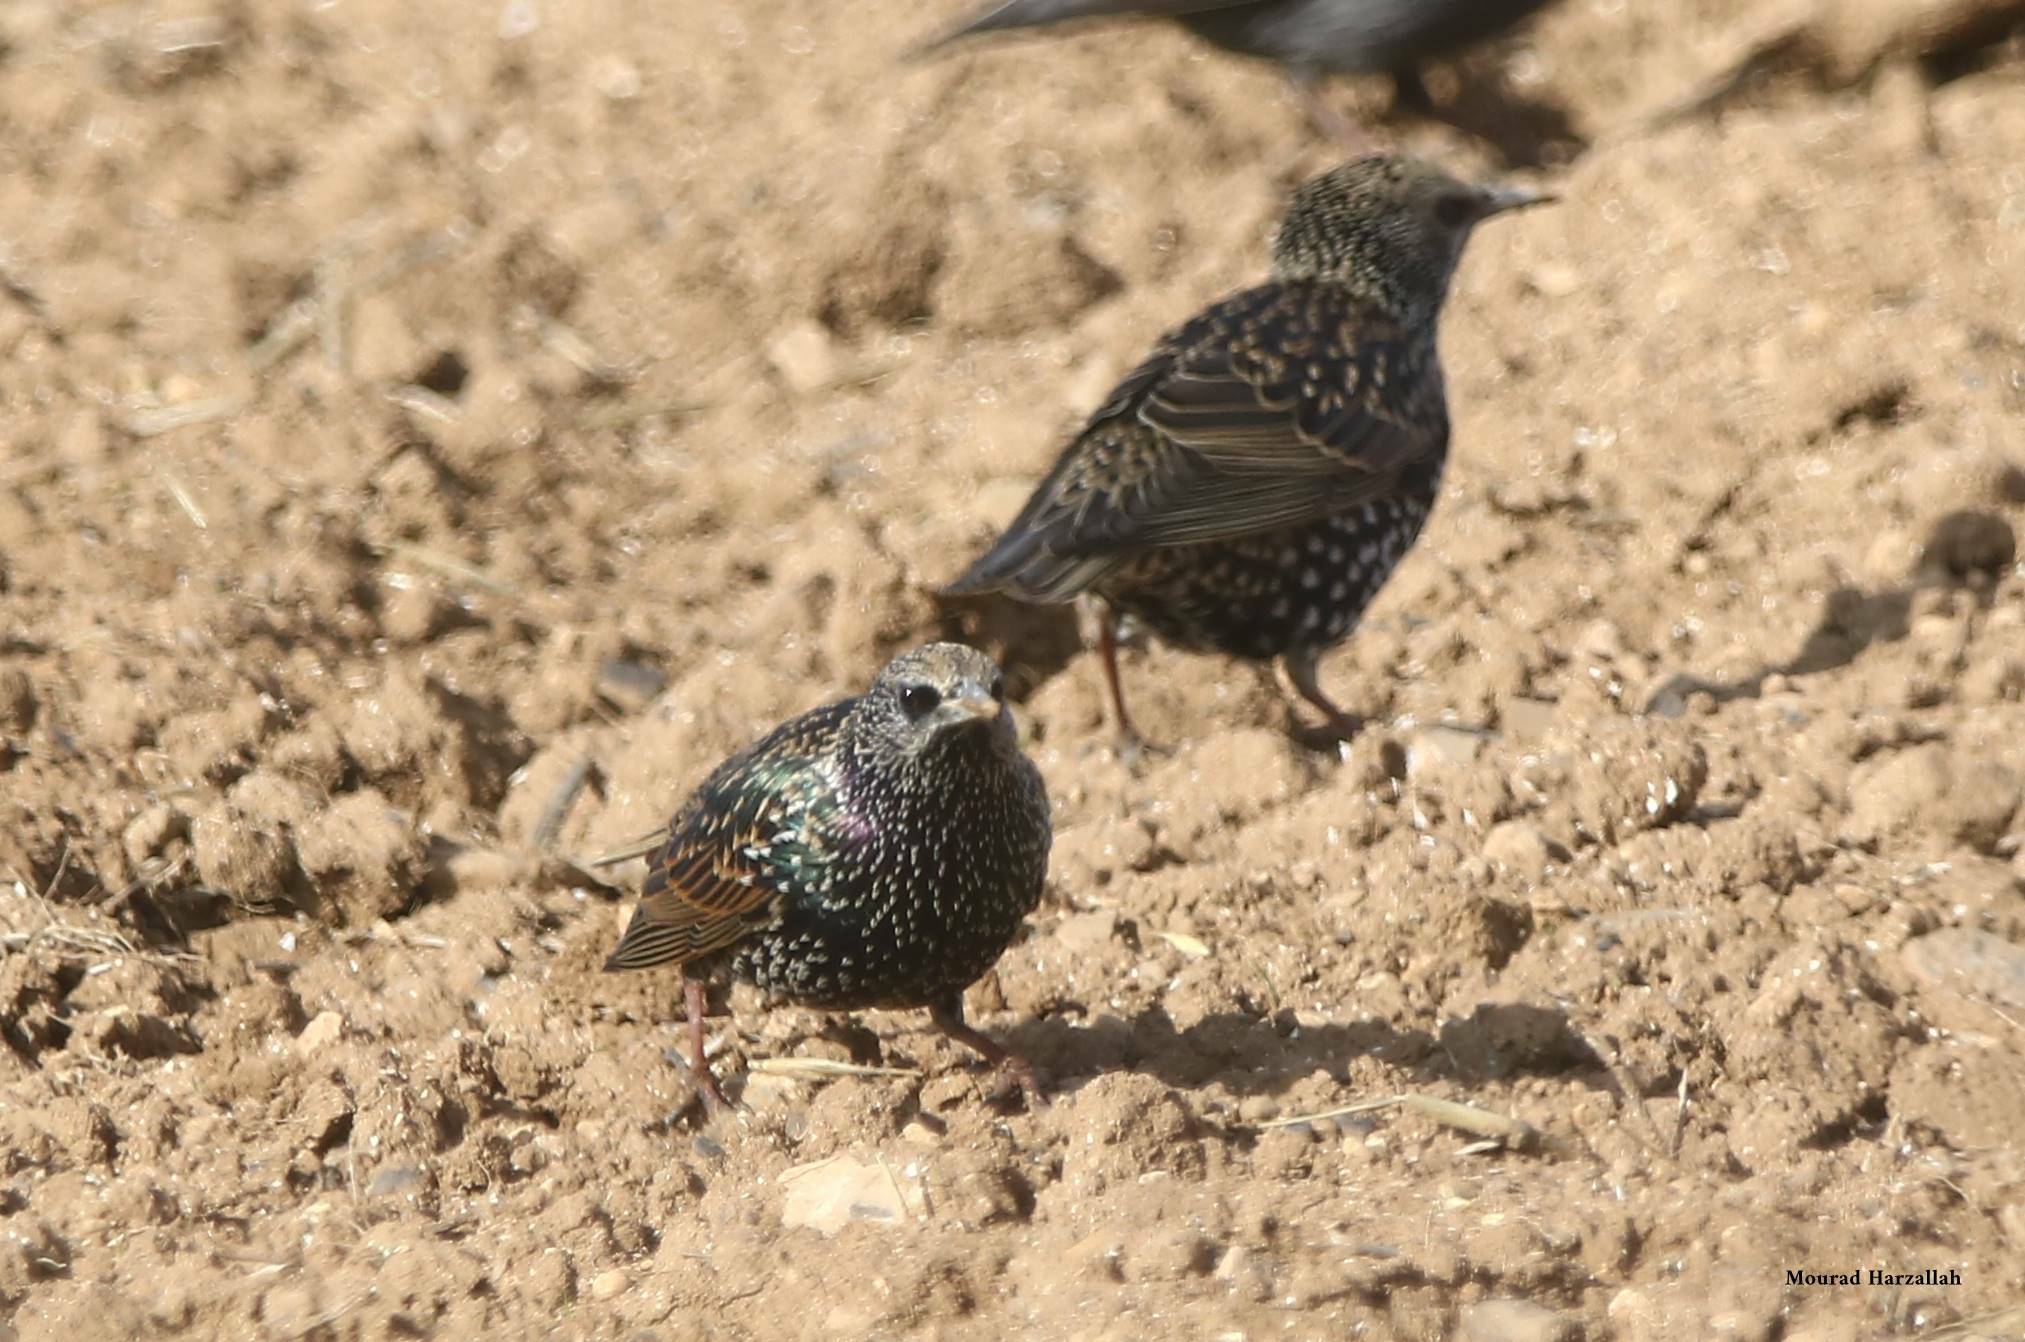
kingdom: Animalia
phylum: Chordata
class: Aves
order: Passeriformes
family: Sturnidae
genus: Sturnus
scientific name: Sturnus vulgaris
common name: Common starling
